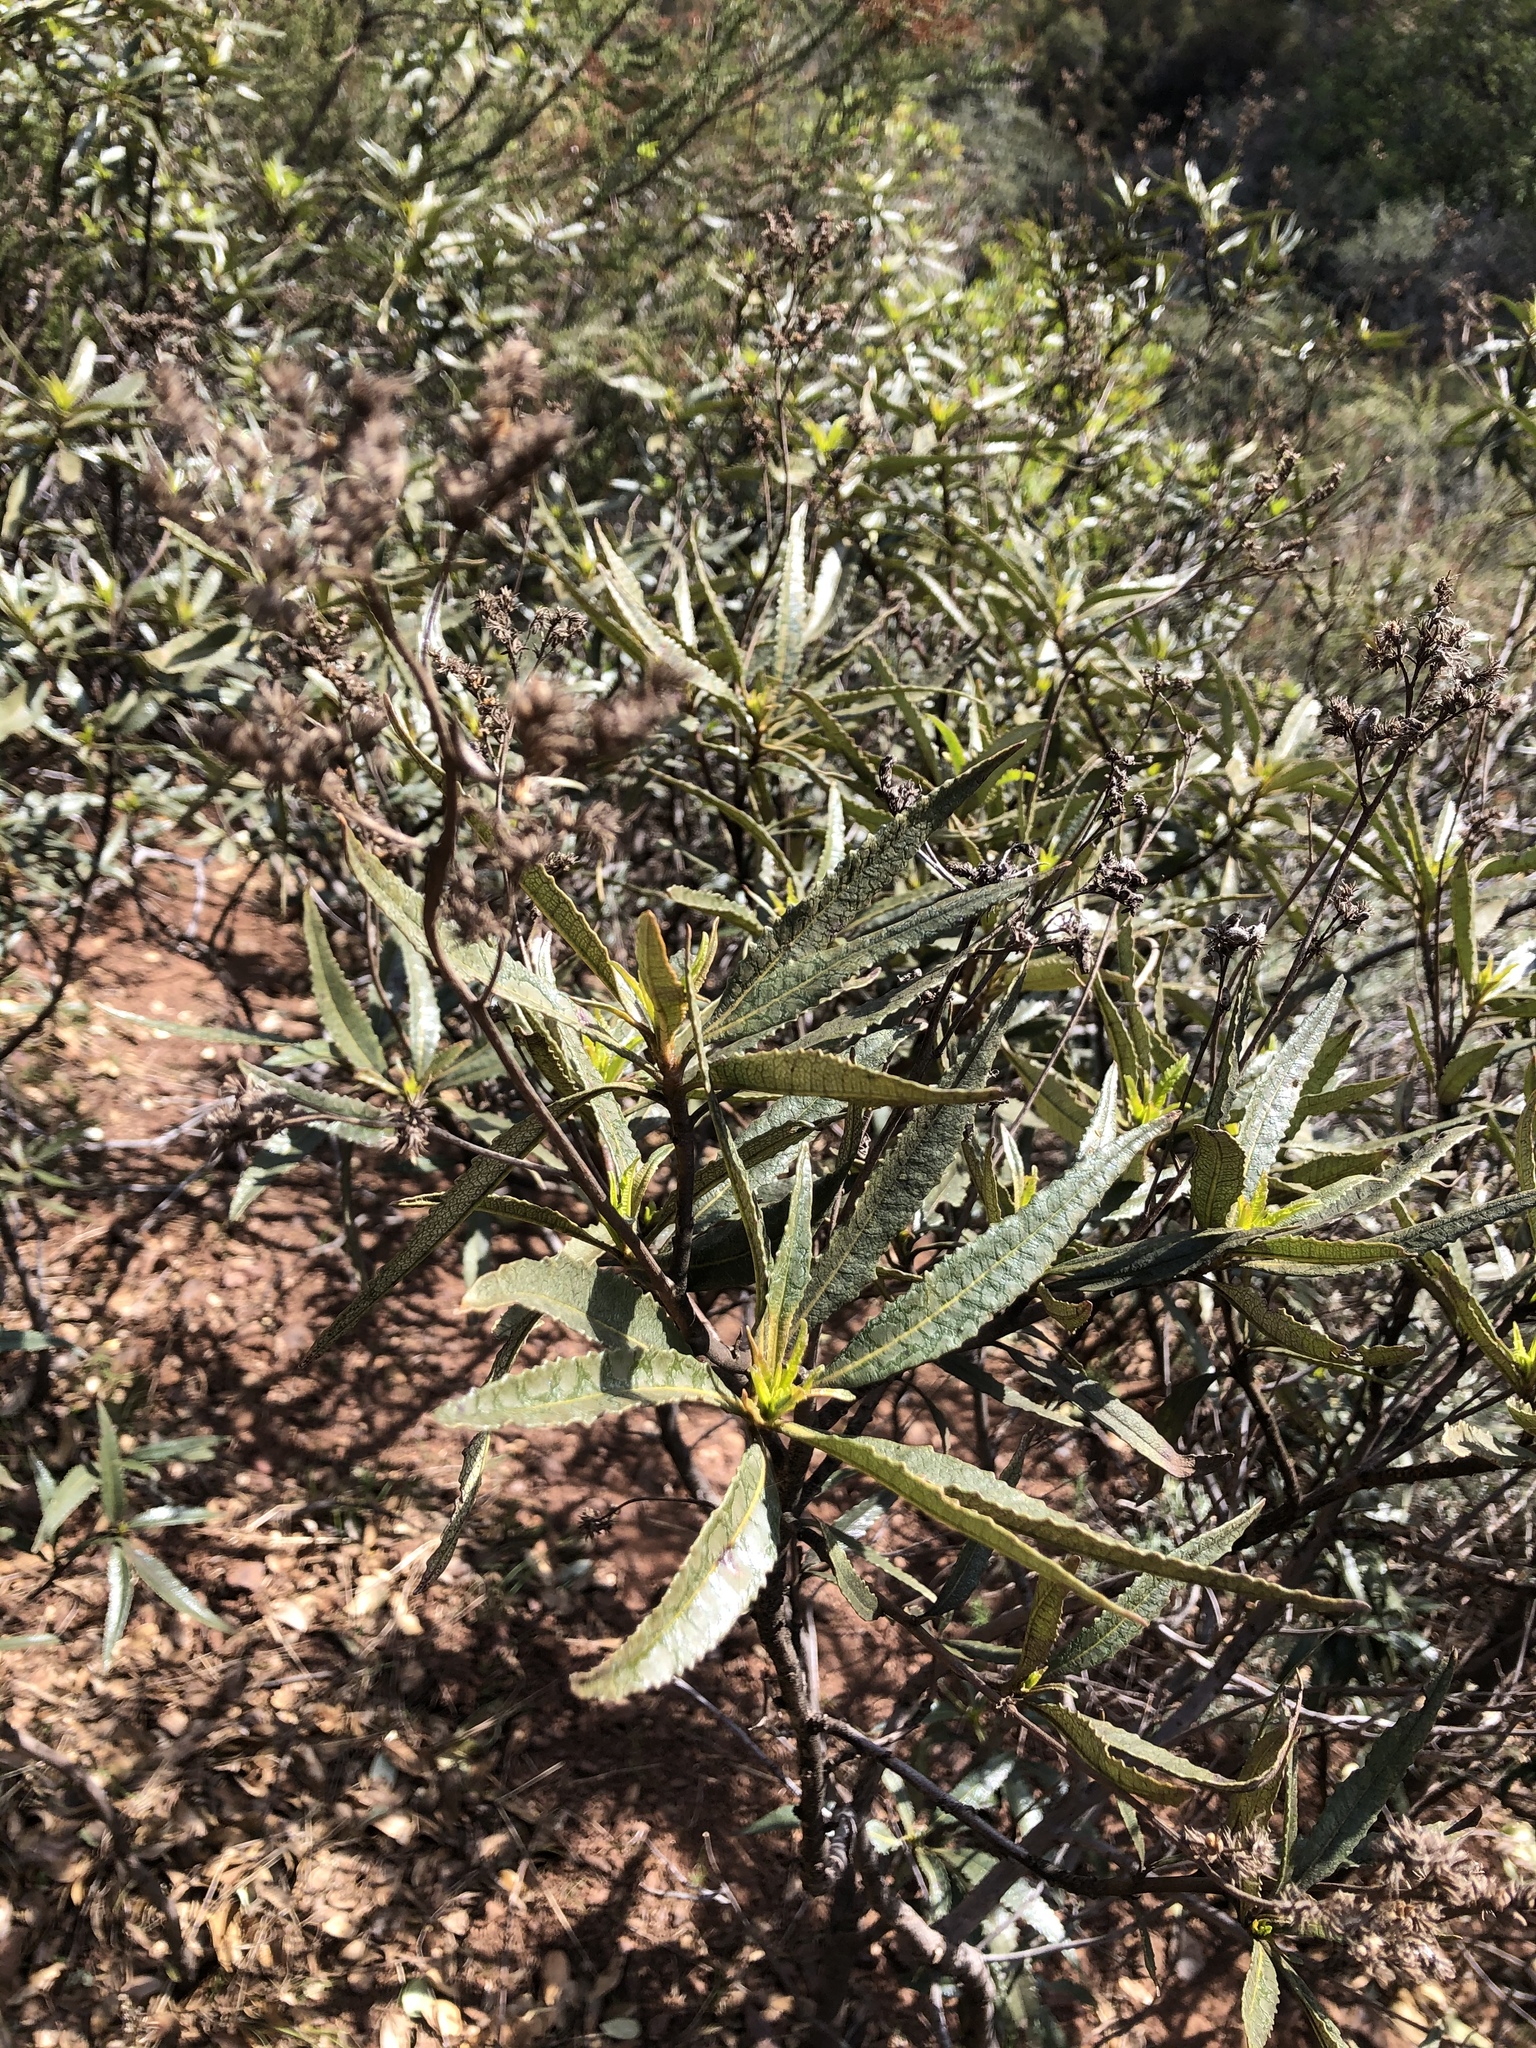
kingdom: Plantae
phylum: Tracheophyta
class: Magnoliopsida
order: Boraginales
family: Namaceae
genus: Eriodictyon
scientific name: Eriodictyon californicum
